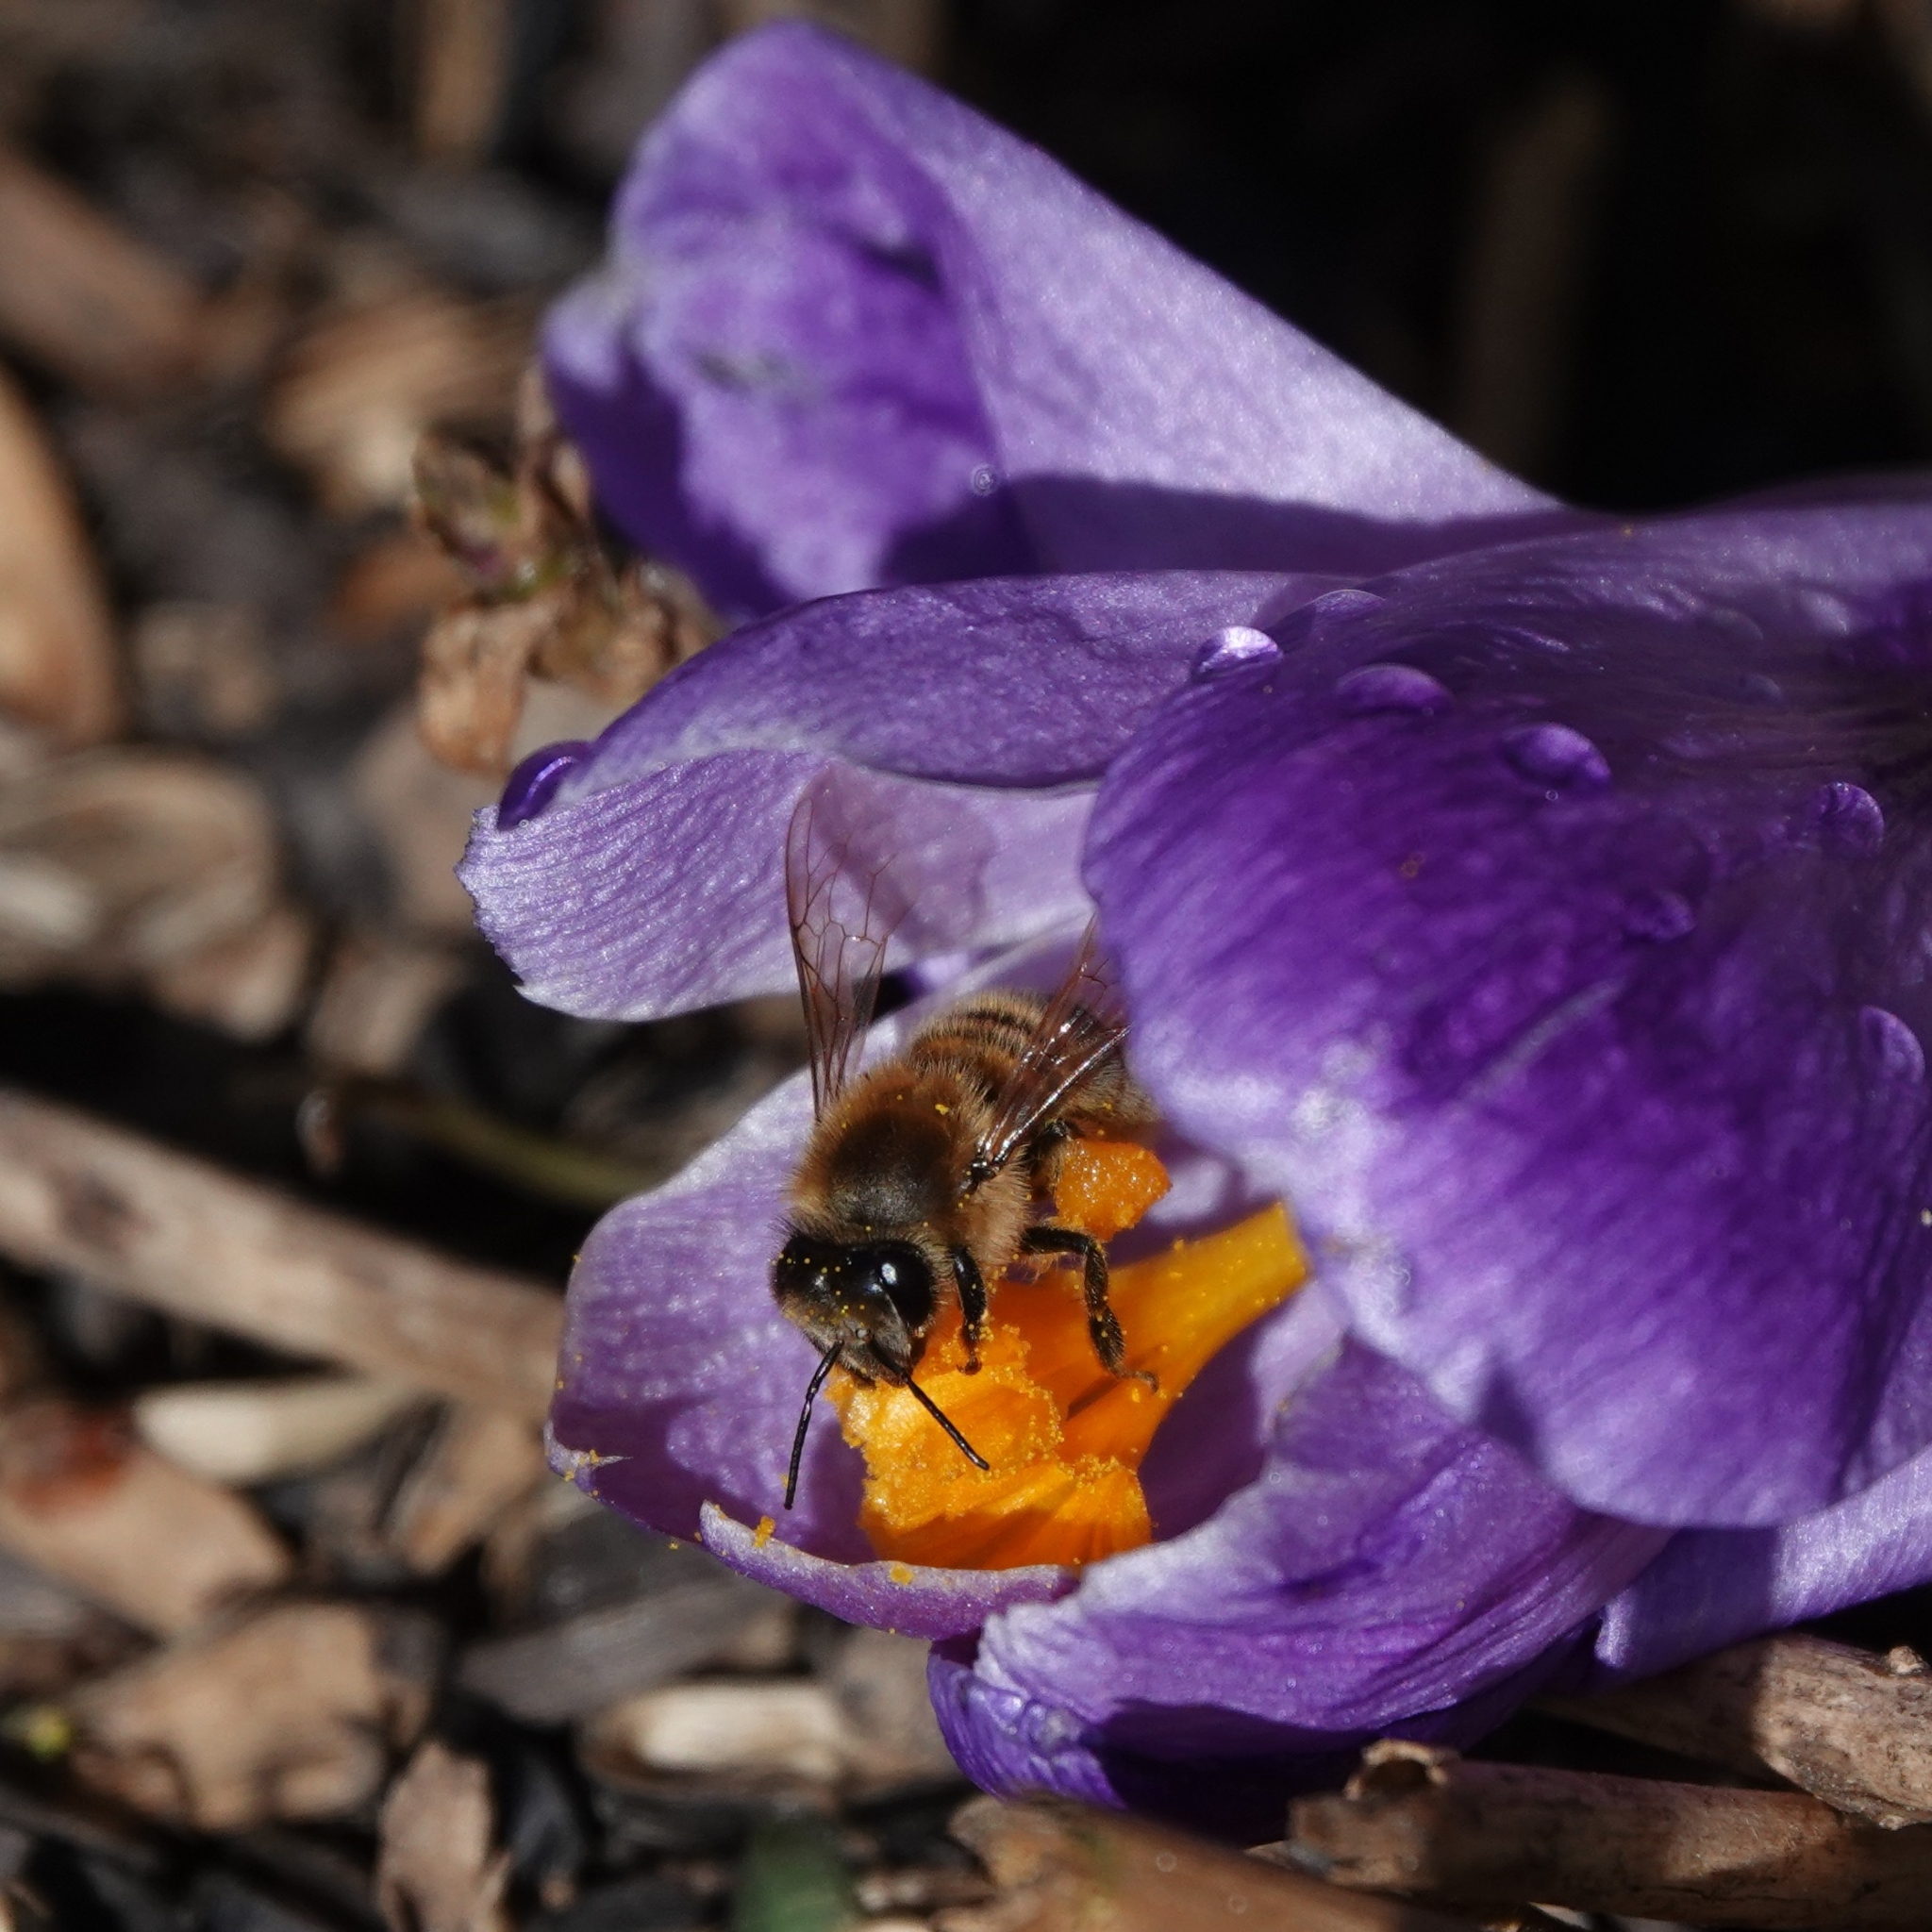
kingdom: Animalia
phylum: Arthropoda
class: Insecta
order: Hymenoptera
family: Apidae
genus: Apis
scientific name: Apis mellifera
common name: Honey bee
